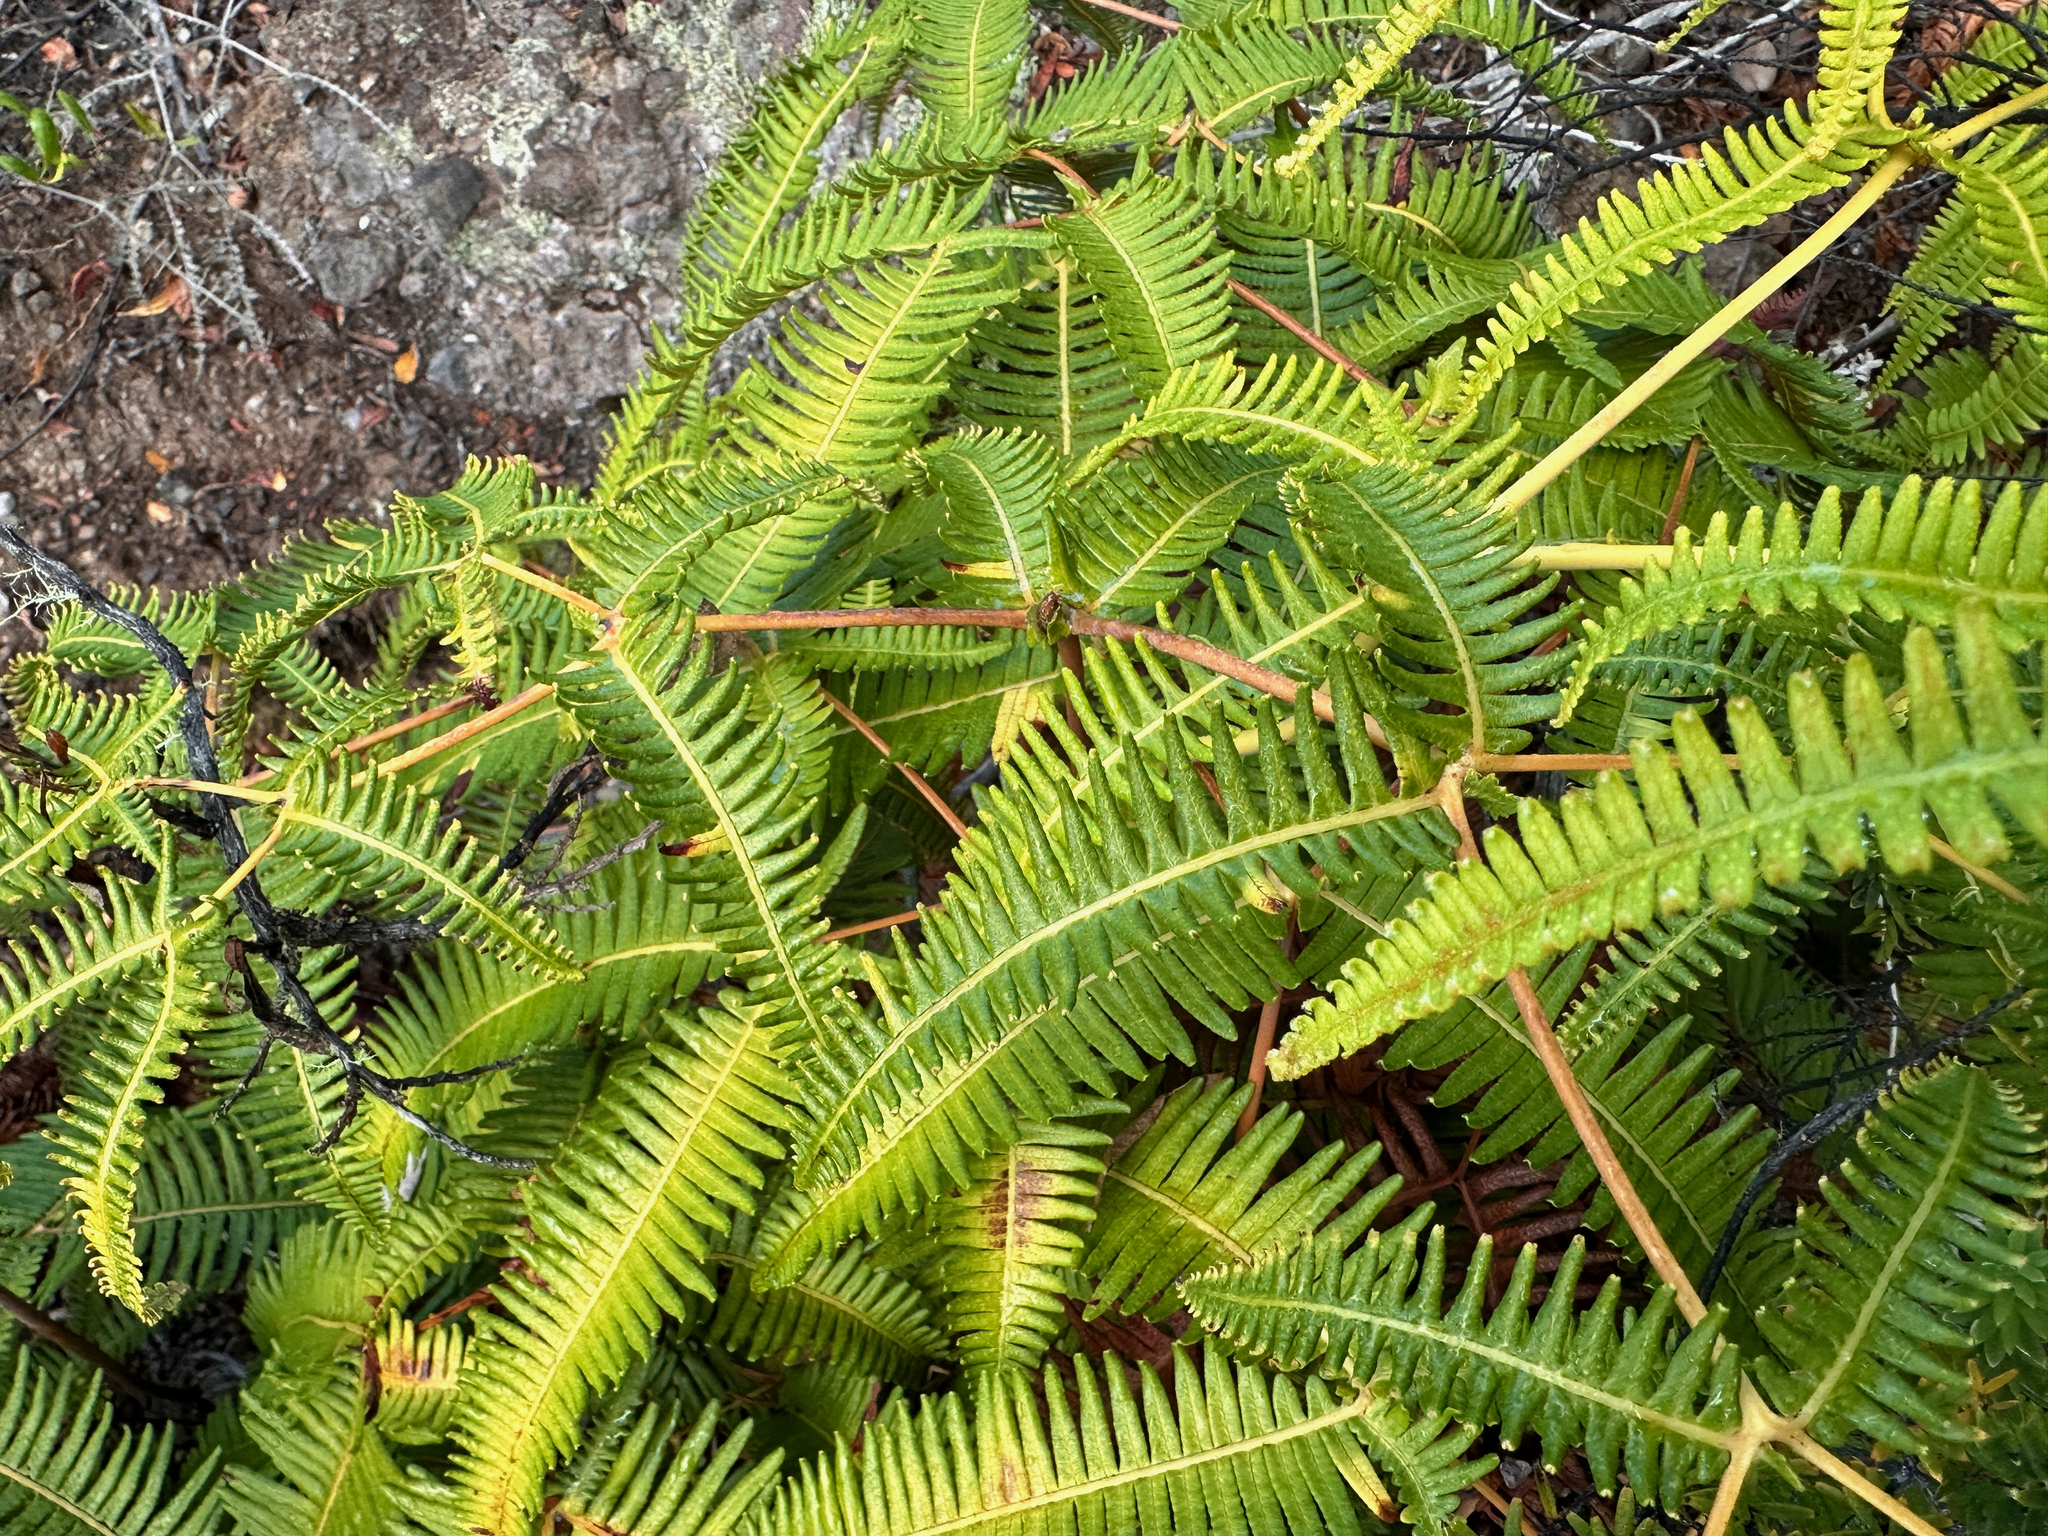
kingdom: Plantae
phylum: Tracheophyta
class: Polypodiopsida
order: Gleicheniales
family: Gleicheniaceae
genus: Dicranopteris
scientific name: Dicranopteris linearis
